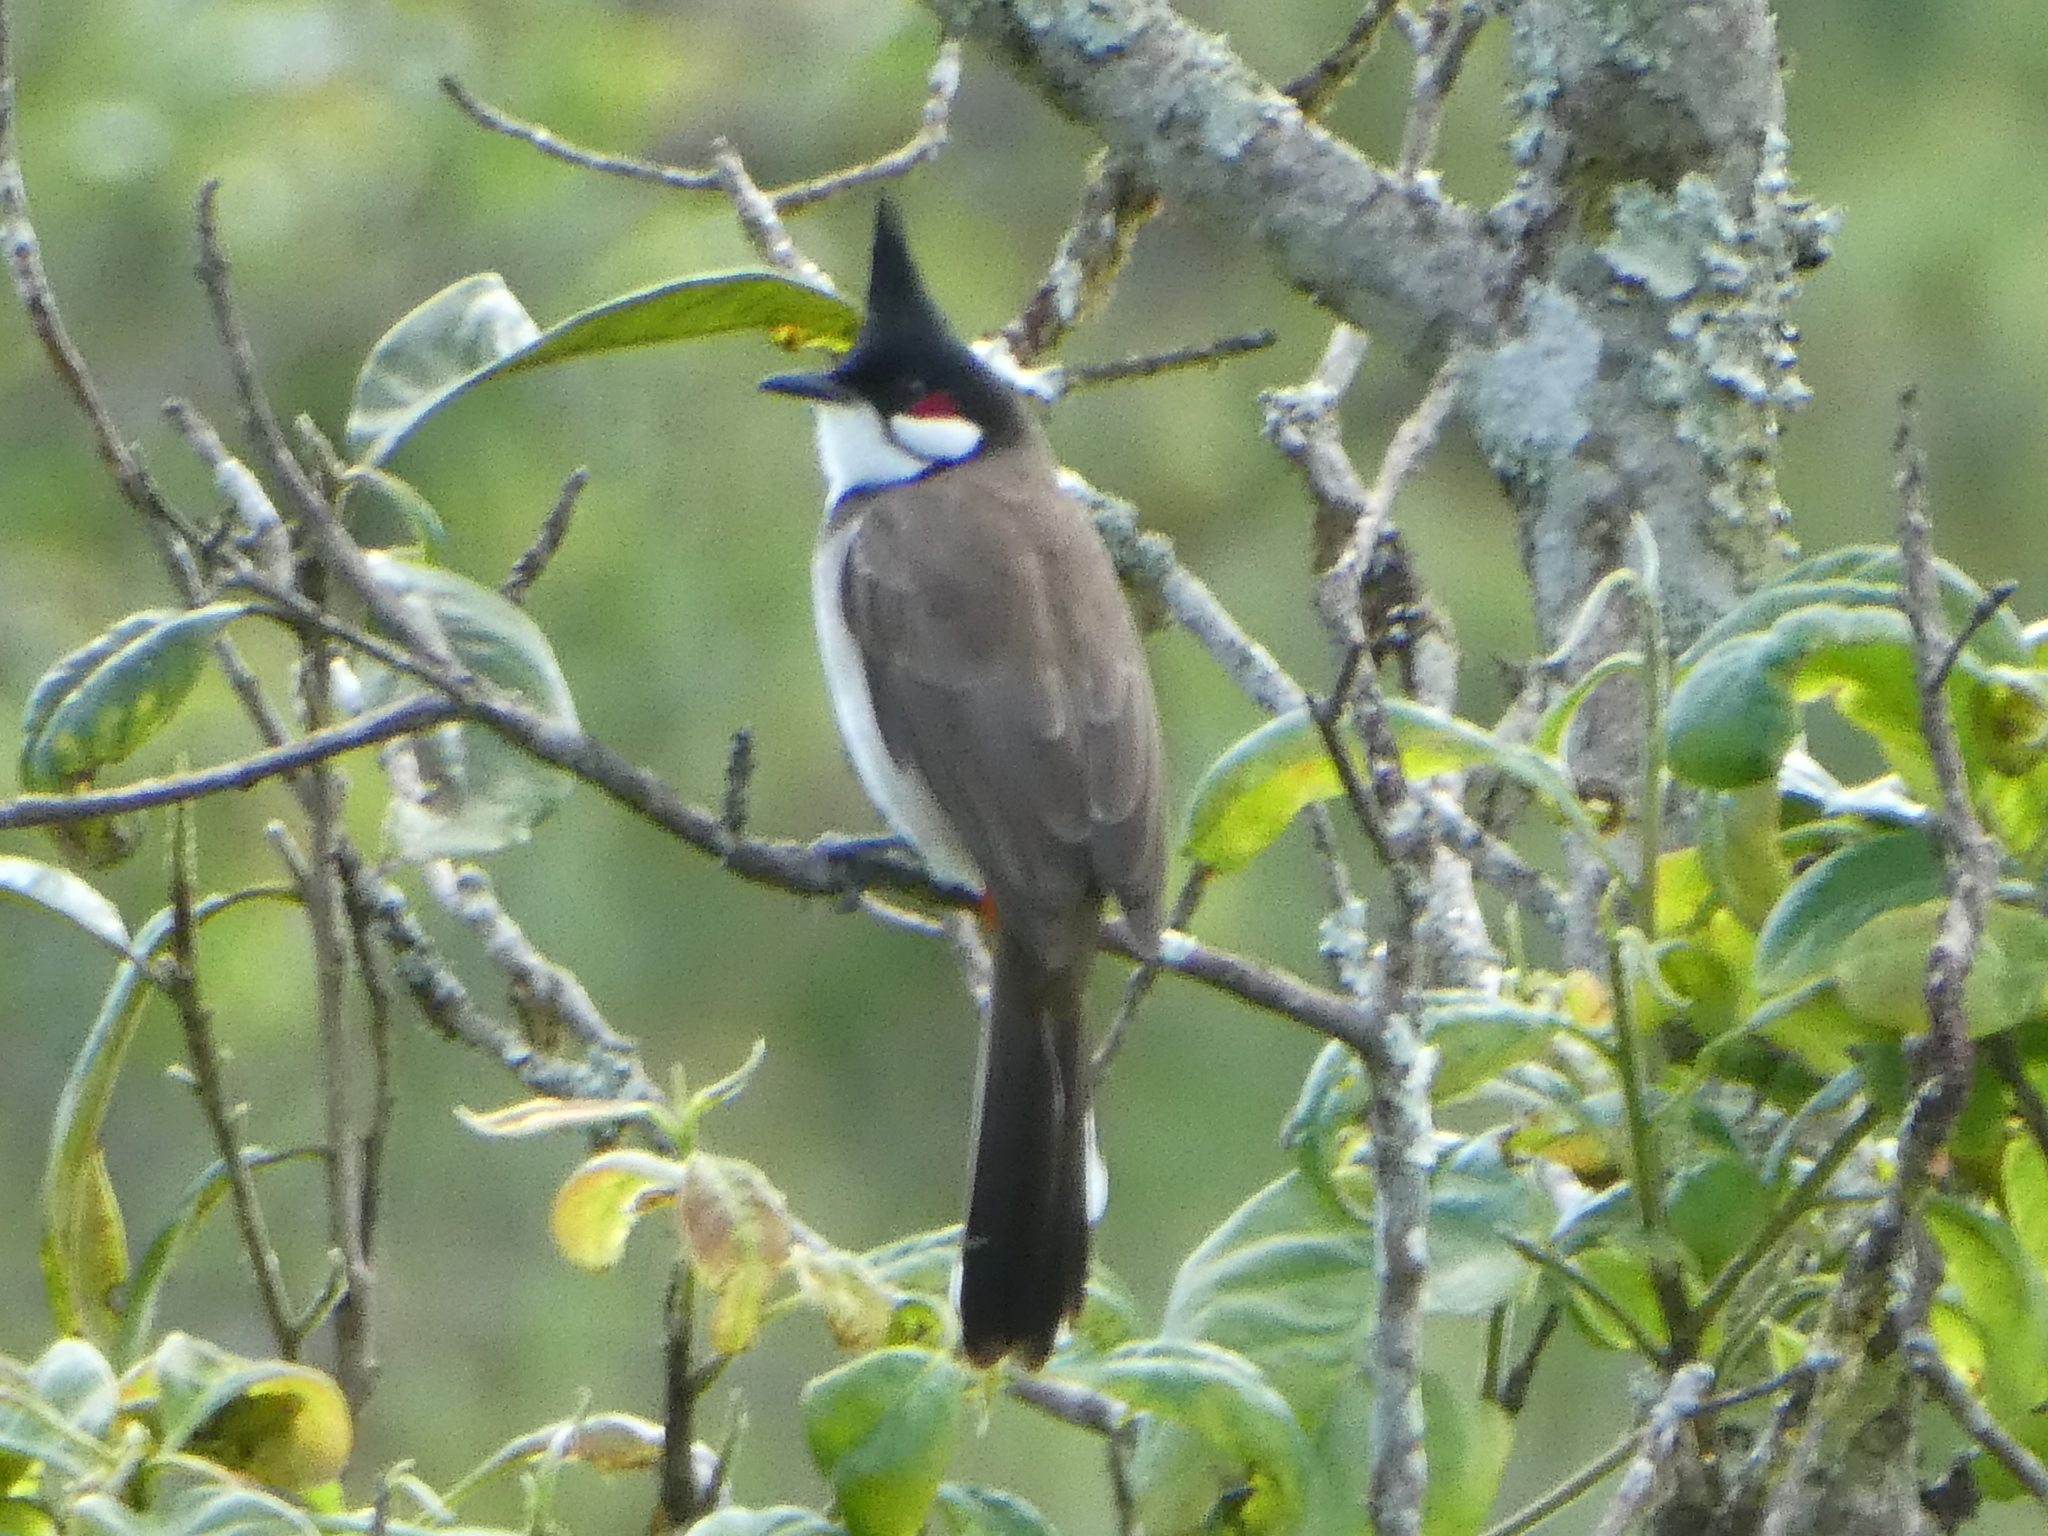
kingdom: Animalia
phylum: Chordata
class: Aves
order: Passeriformes
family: Pycnonotidae
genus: Pycnonotus
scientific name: Pycnonotus jocosus
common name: Red-whiskered bulbul
